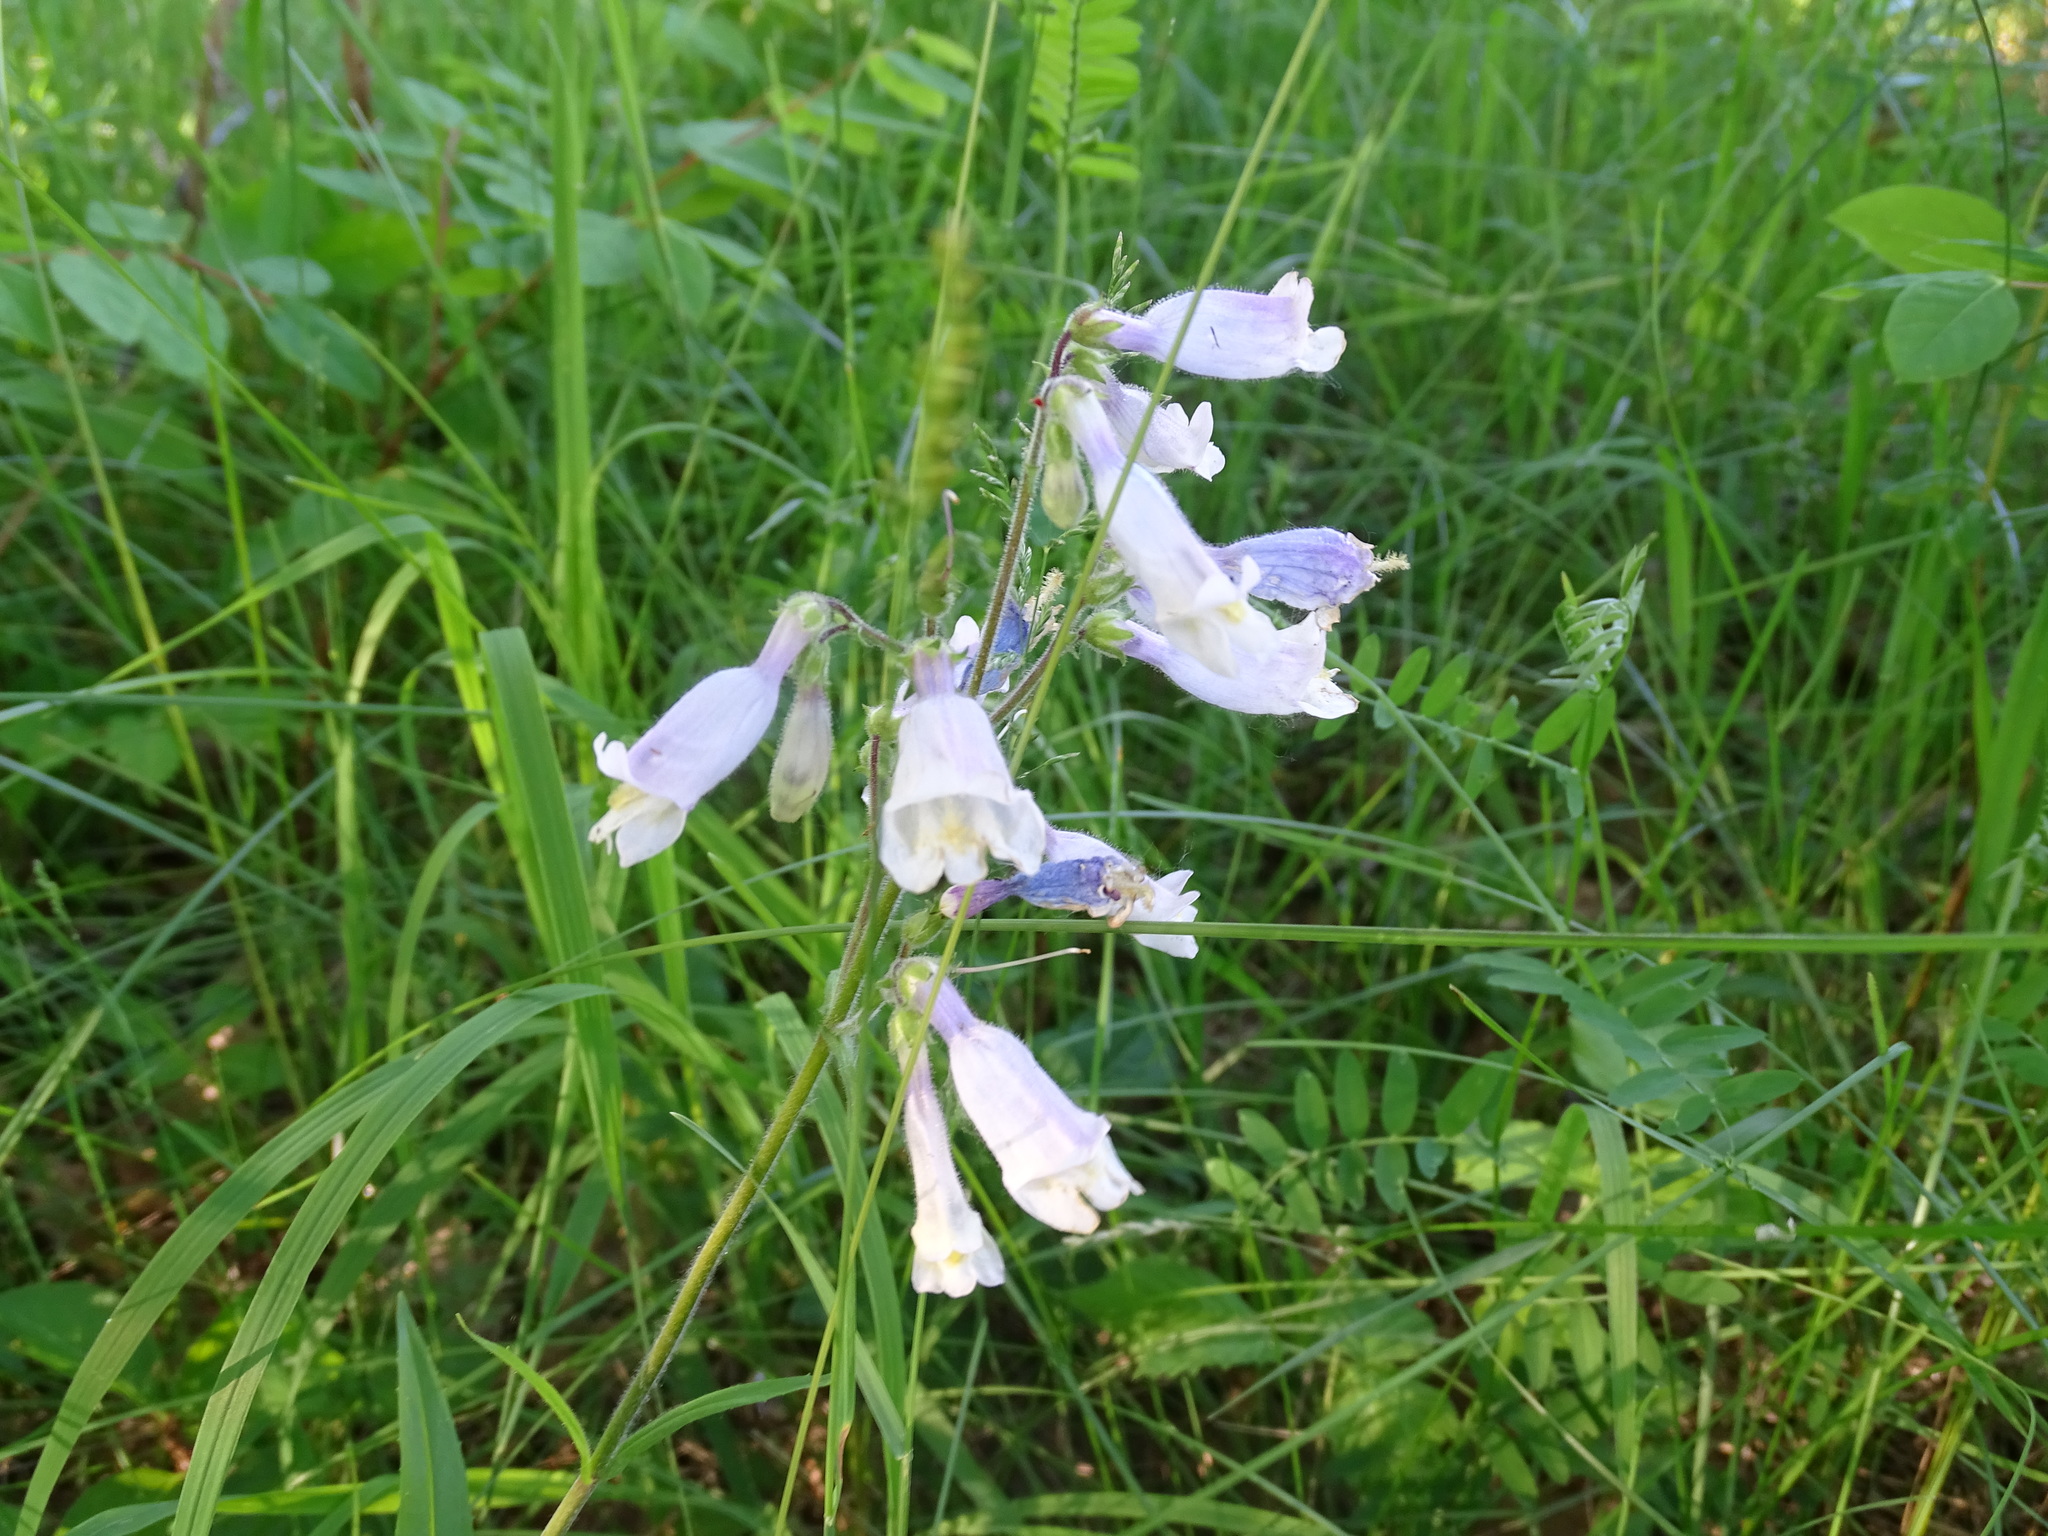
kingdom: Plantae
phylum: Tracheophyta
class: Magnoliopsida
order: Lamiales
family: Plantaginaceae
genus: Penstemon
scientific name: Penstemon hirsutus
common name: Hairy beardtongue
